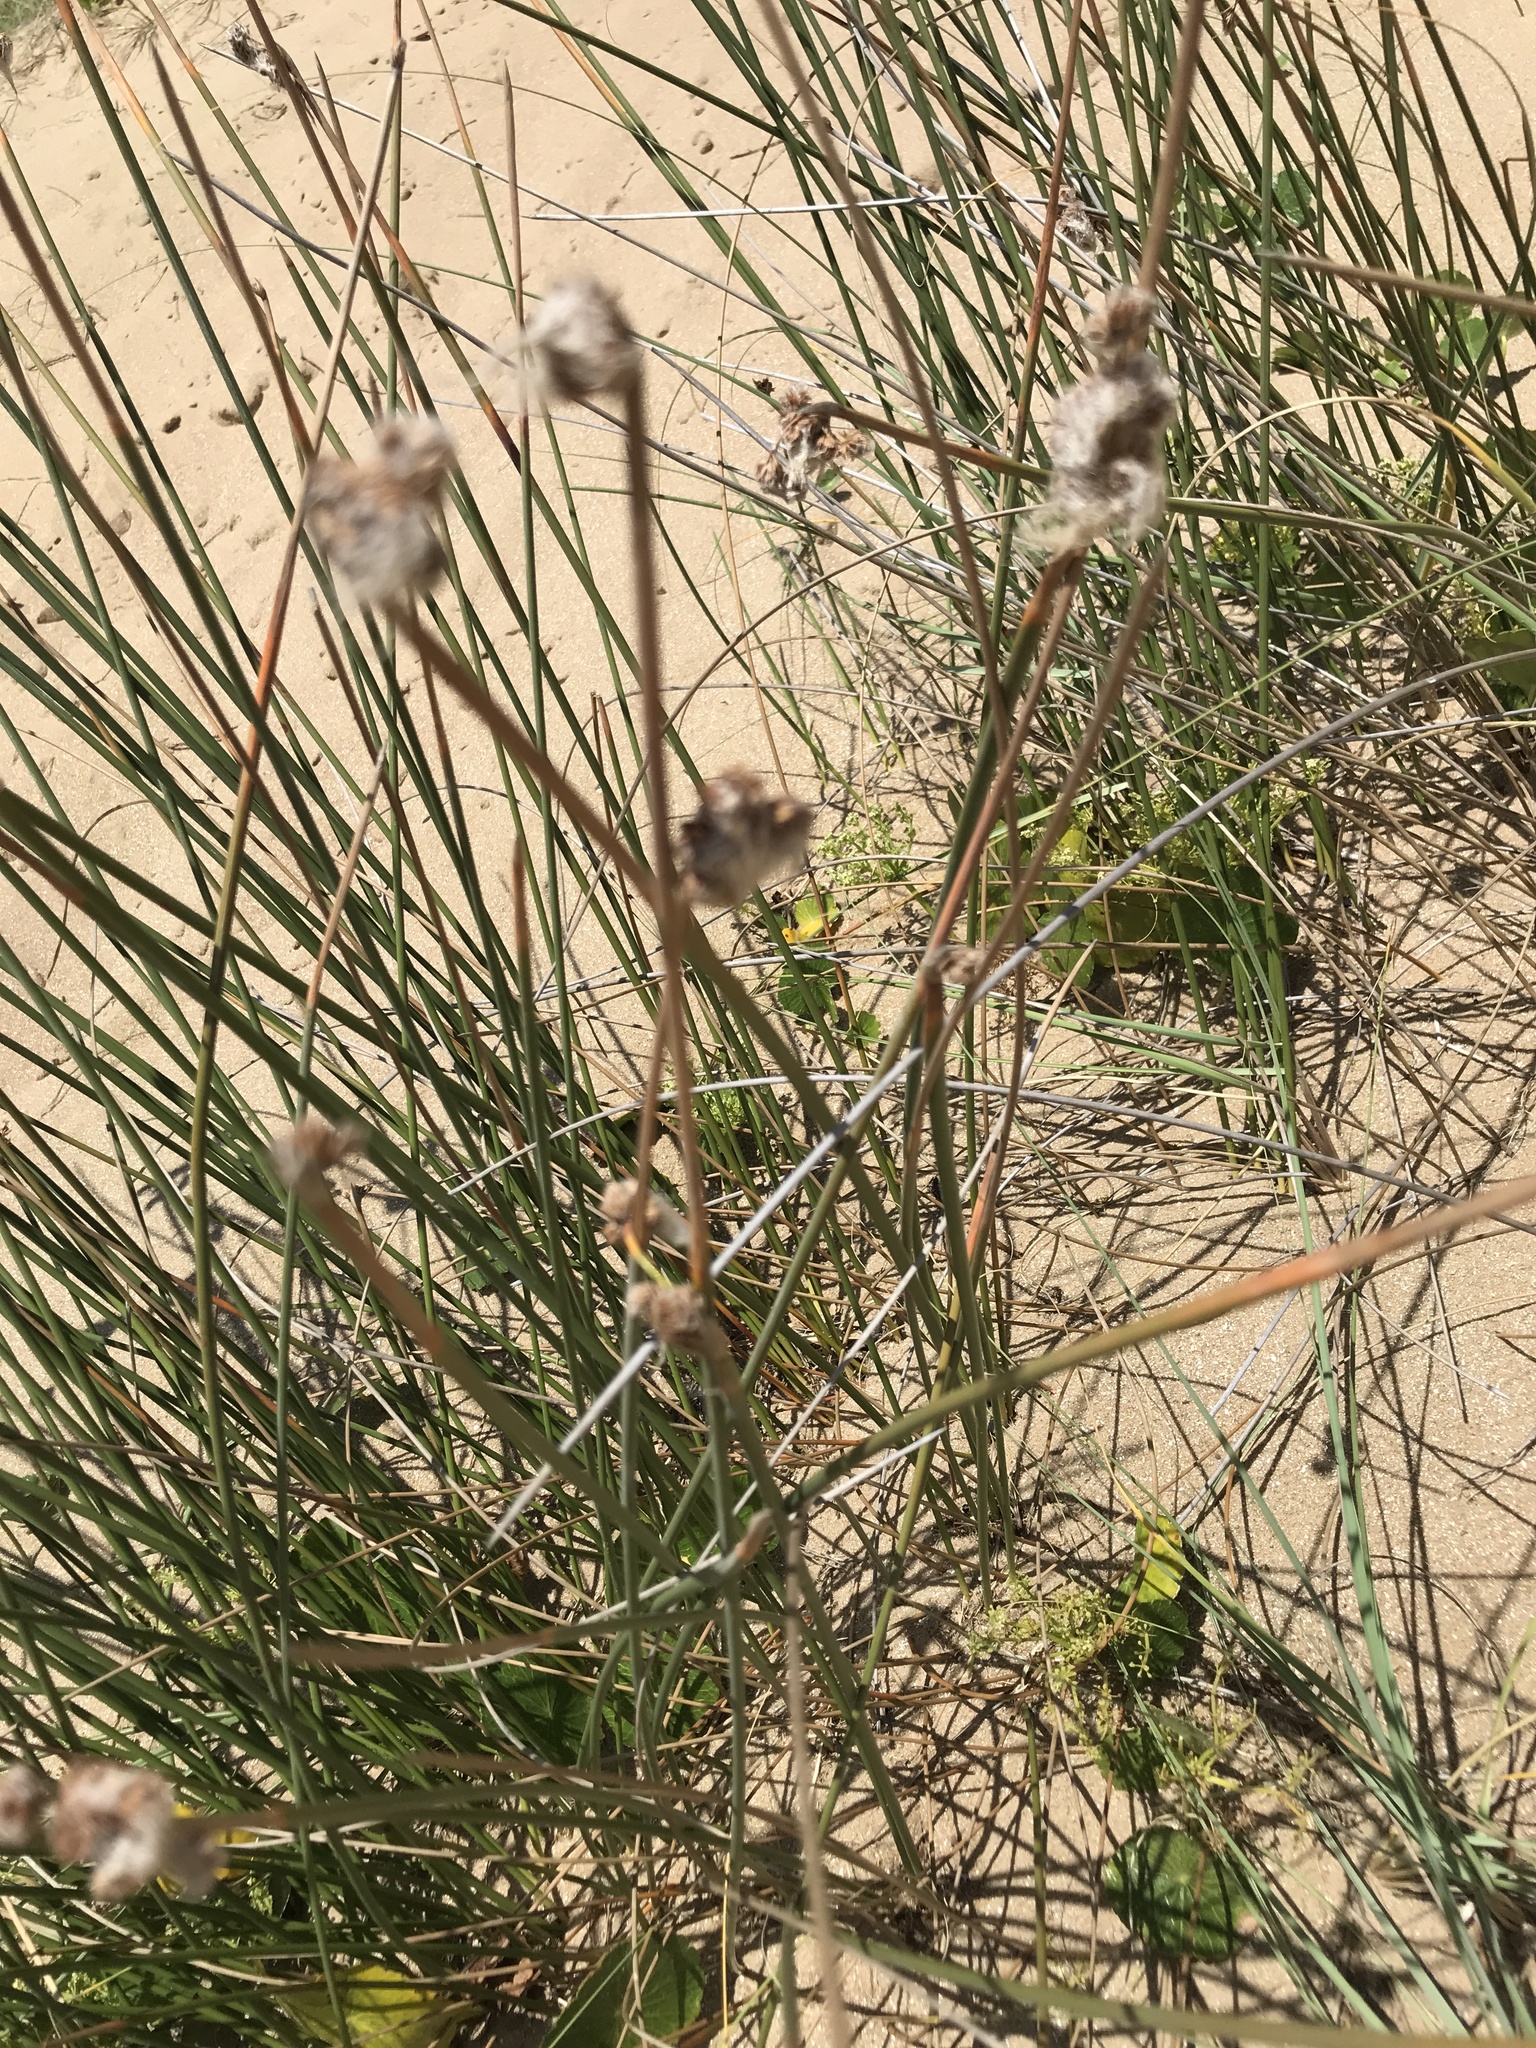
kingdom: Plantae
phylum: Tracheophyta
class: Liliopsida
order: Poales
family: Cyperaceae
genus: Cyperus
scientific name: Cyperus trigynus
